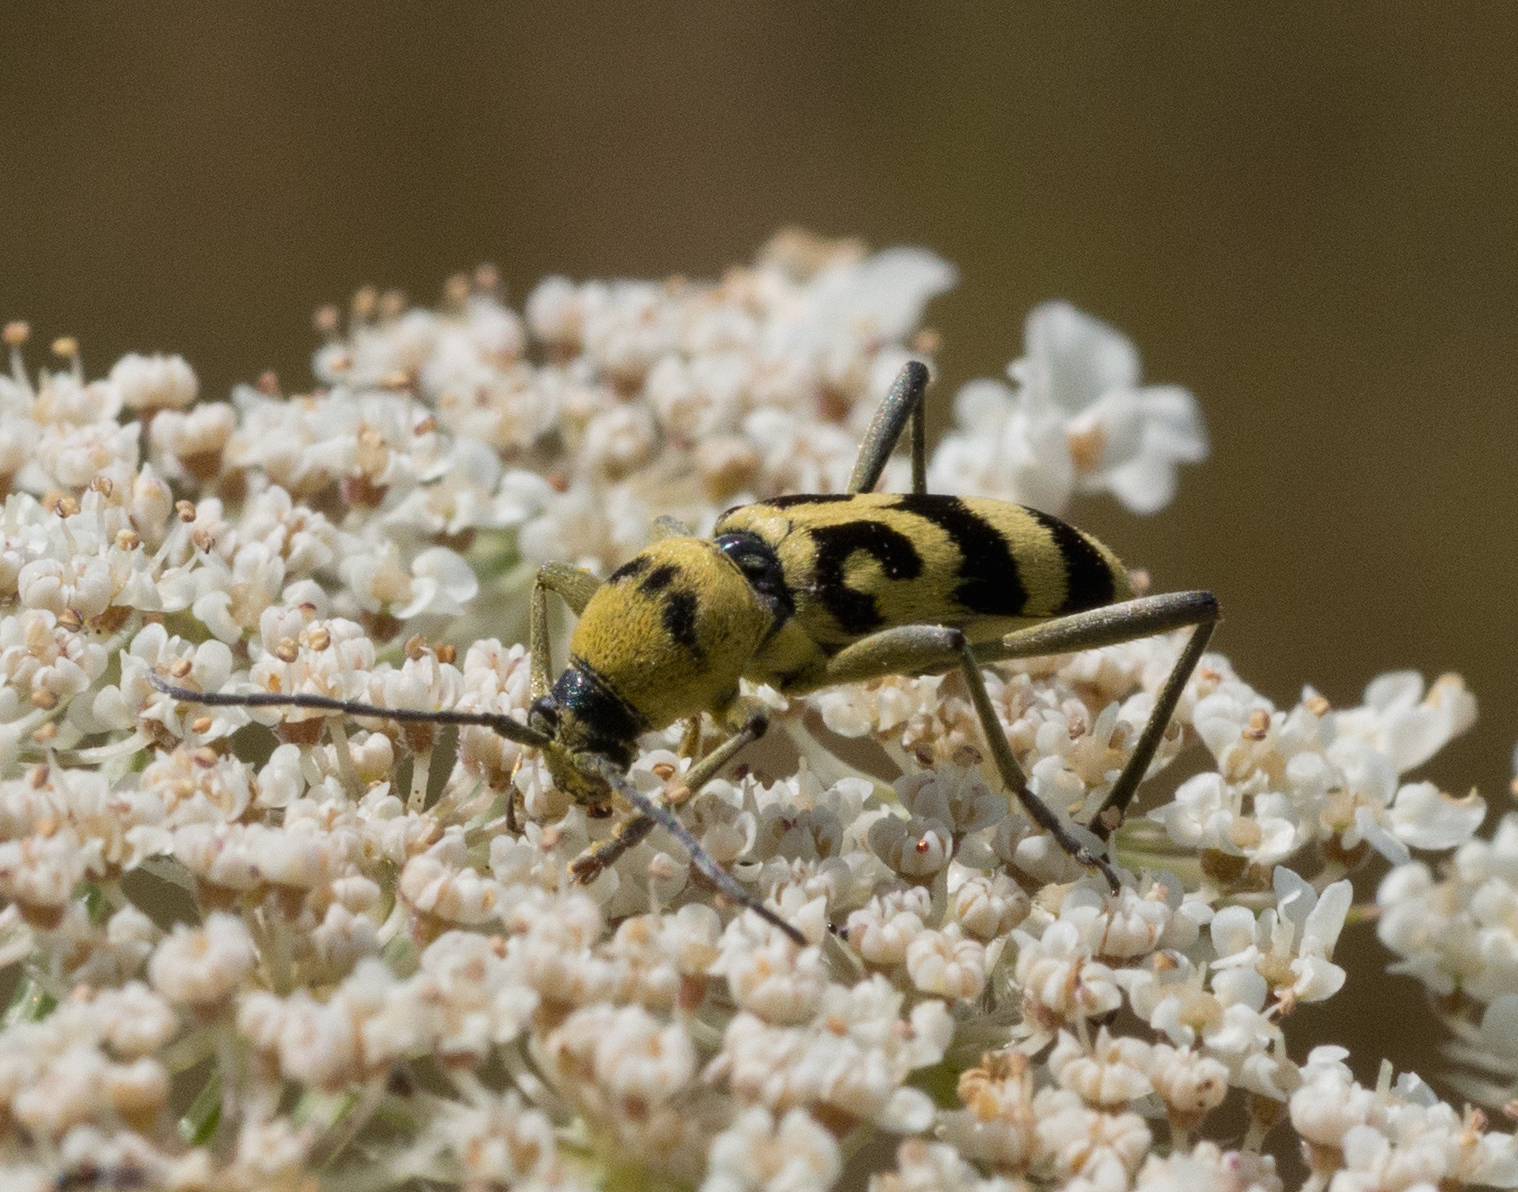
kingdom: Animalia
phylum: Arthropoda
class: Insecta
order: Coleoptera
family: Cerambycidae
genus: Chlorophorus
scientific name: Chlorophorus varius
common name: Grape wood borer
